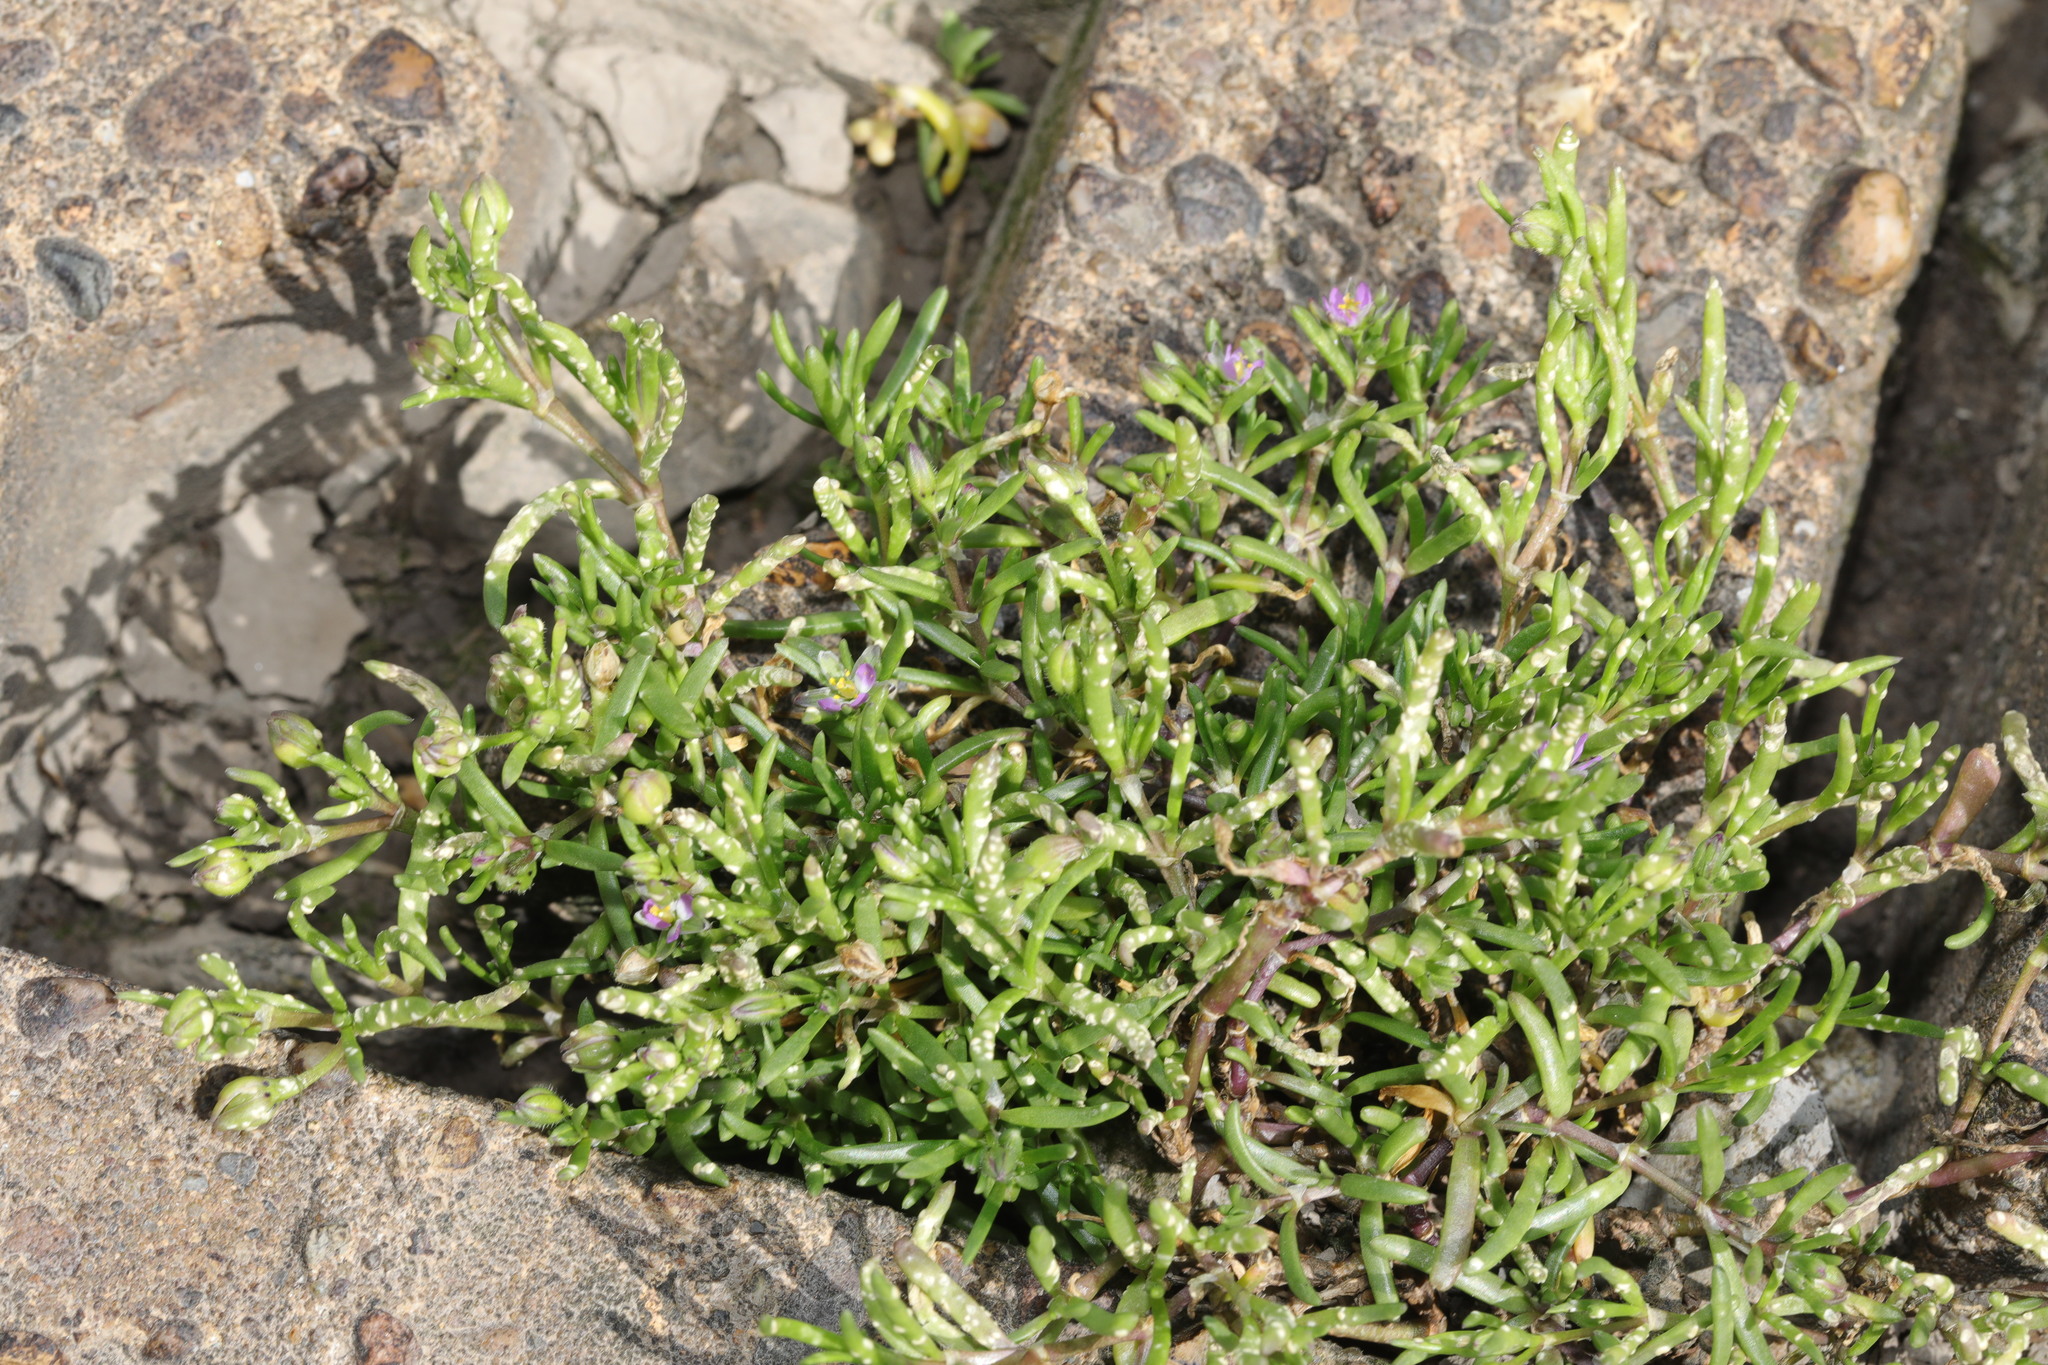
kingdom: Plantae
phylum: Tracheophyta
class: Magnoliopsida
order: Caryophyllales
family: Caryophyllaceae
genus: Spergularia
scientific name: Spergularia marina
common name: Lesser sea-spurrey
